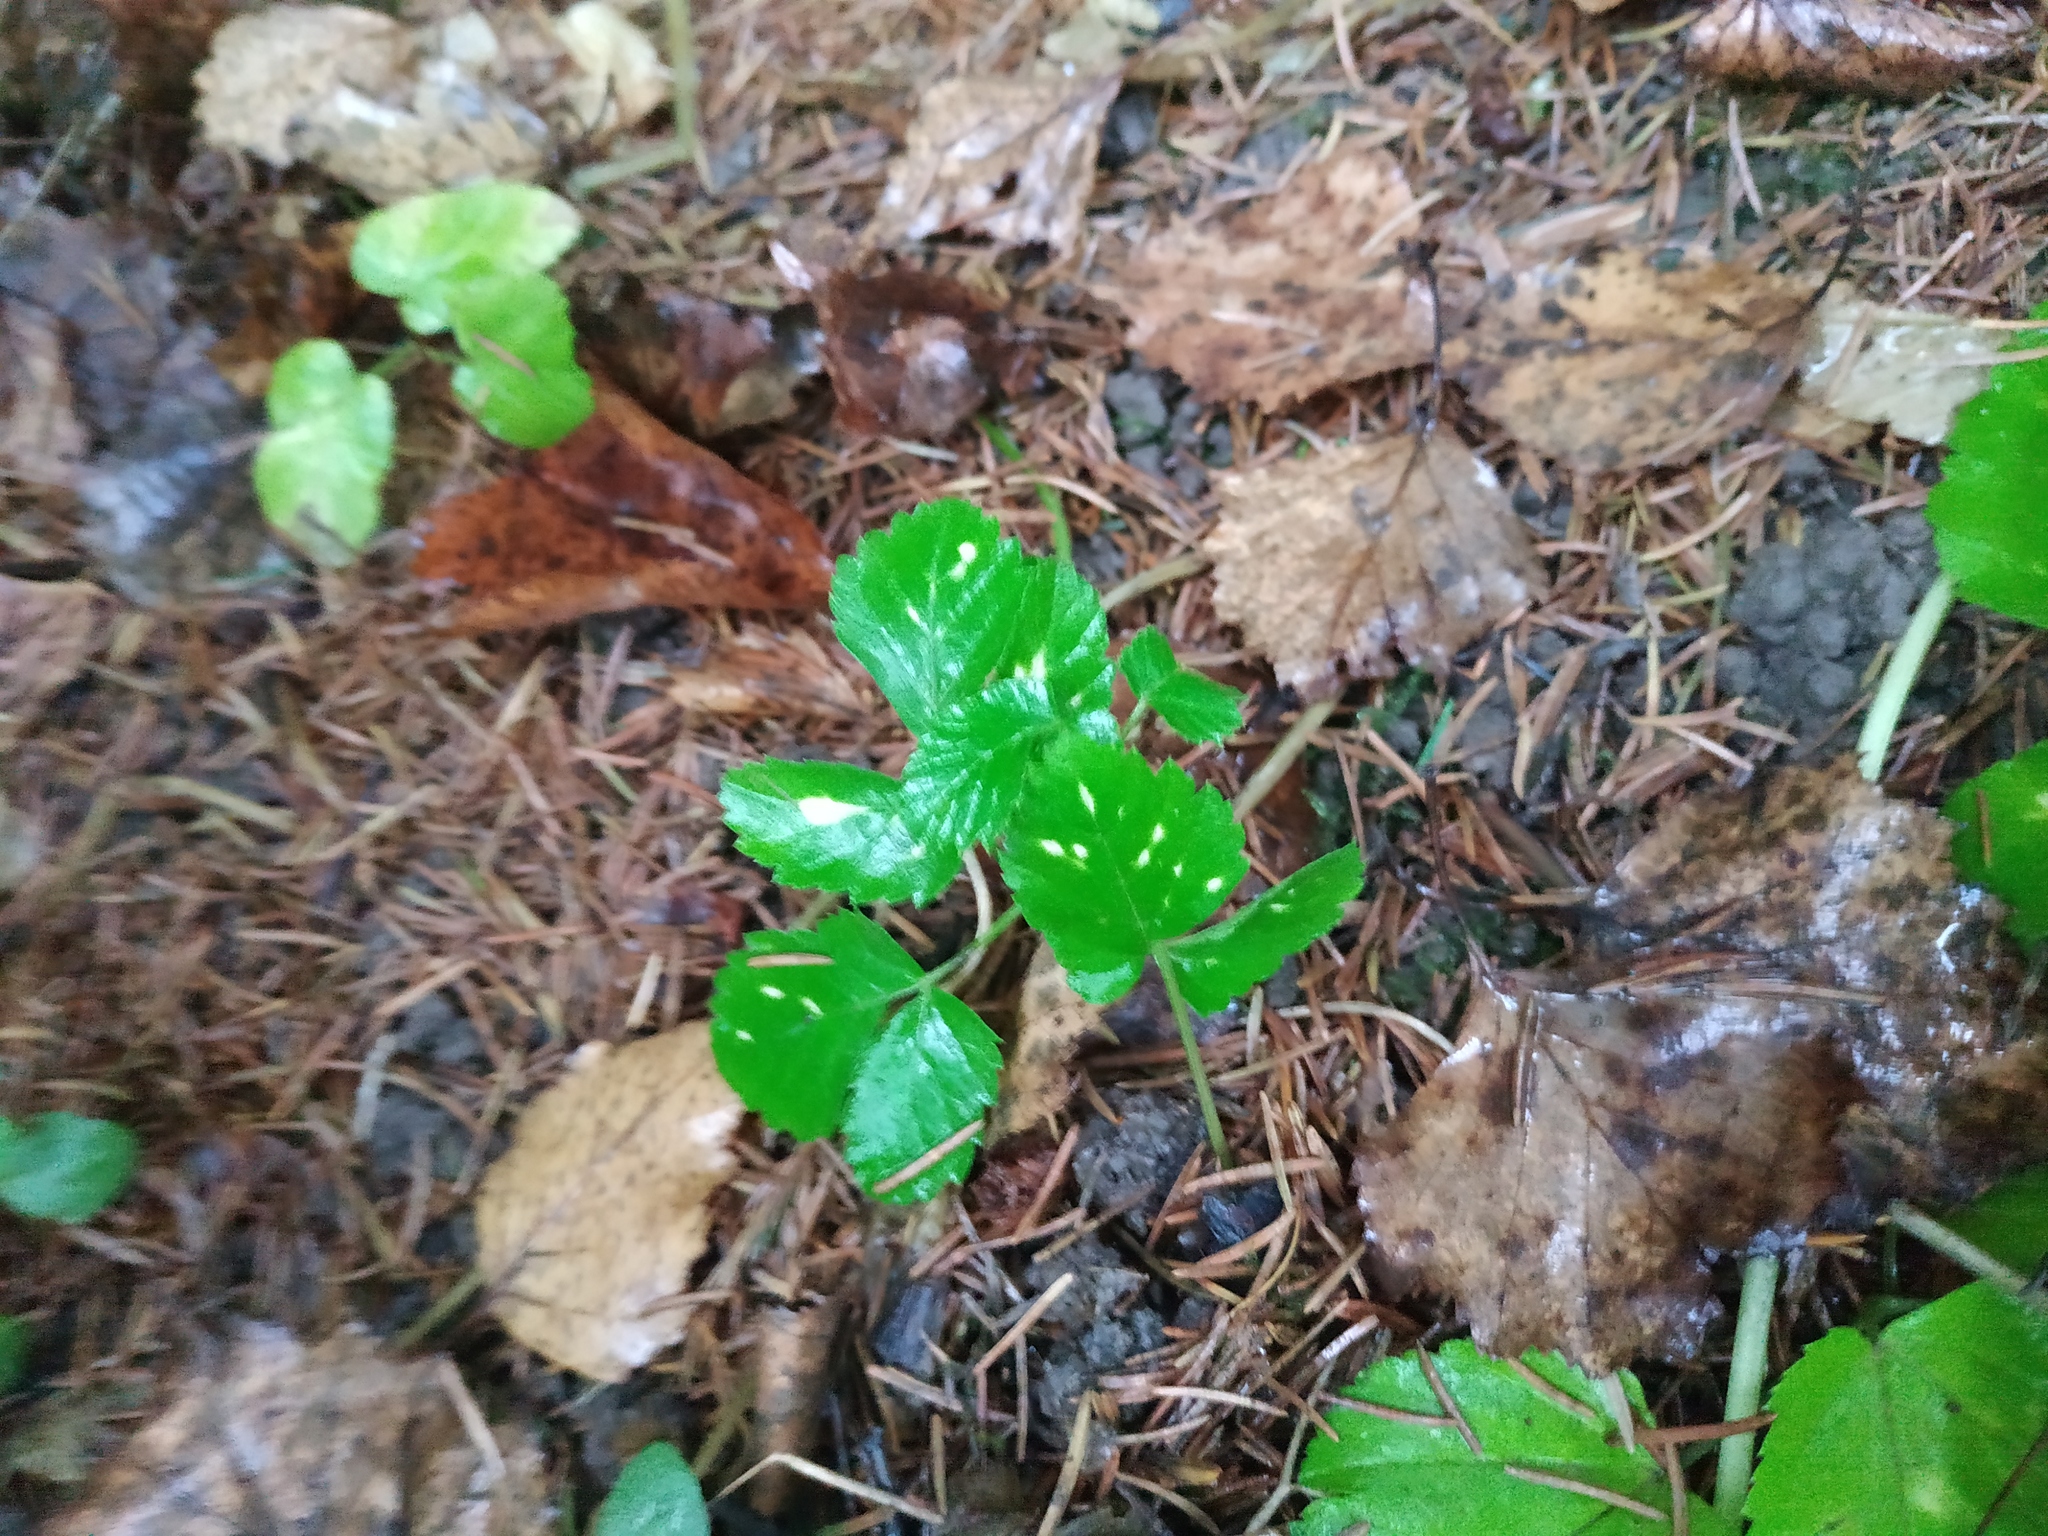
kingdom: Plantae
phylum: Tracheophyta
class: Magnoliopsida
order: Apiales
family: Apiaceae
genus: Aegopodium
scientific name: Aegopodium podagraria
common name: Ground-elder
